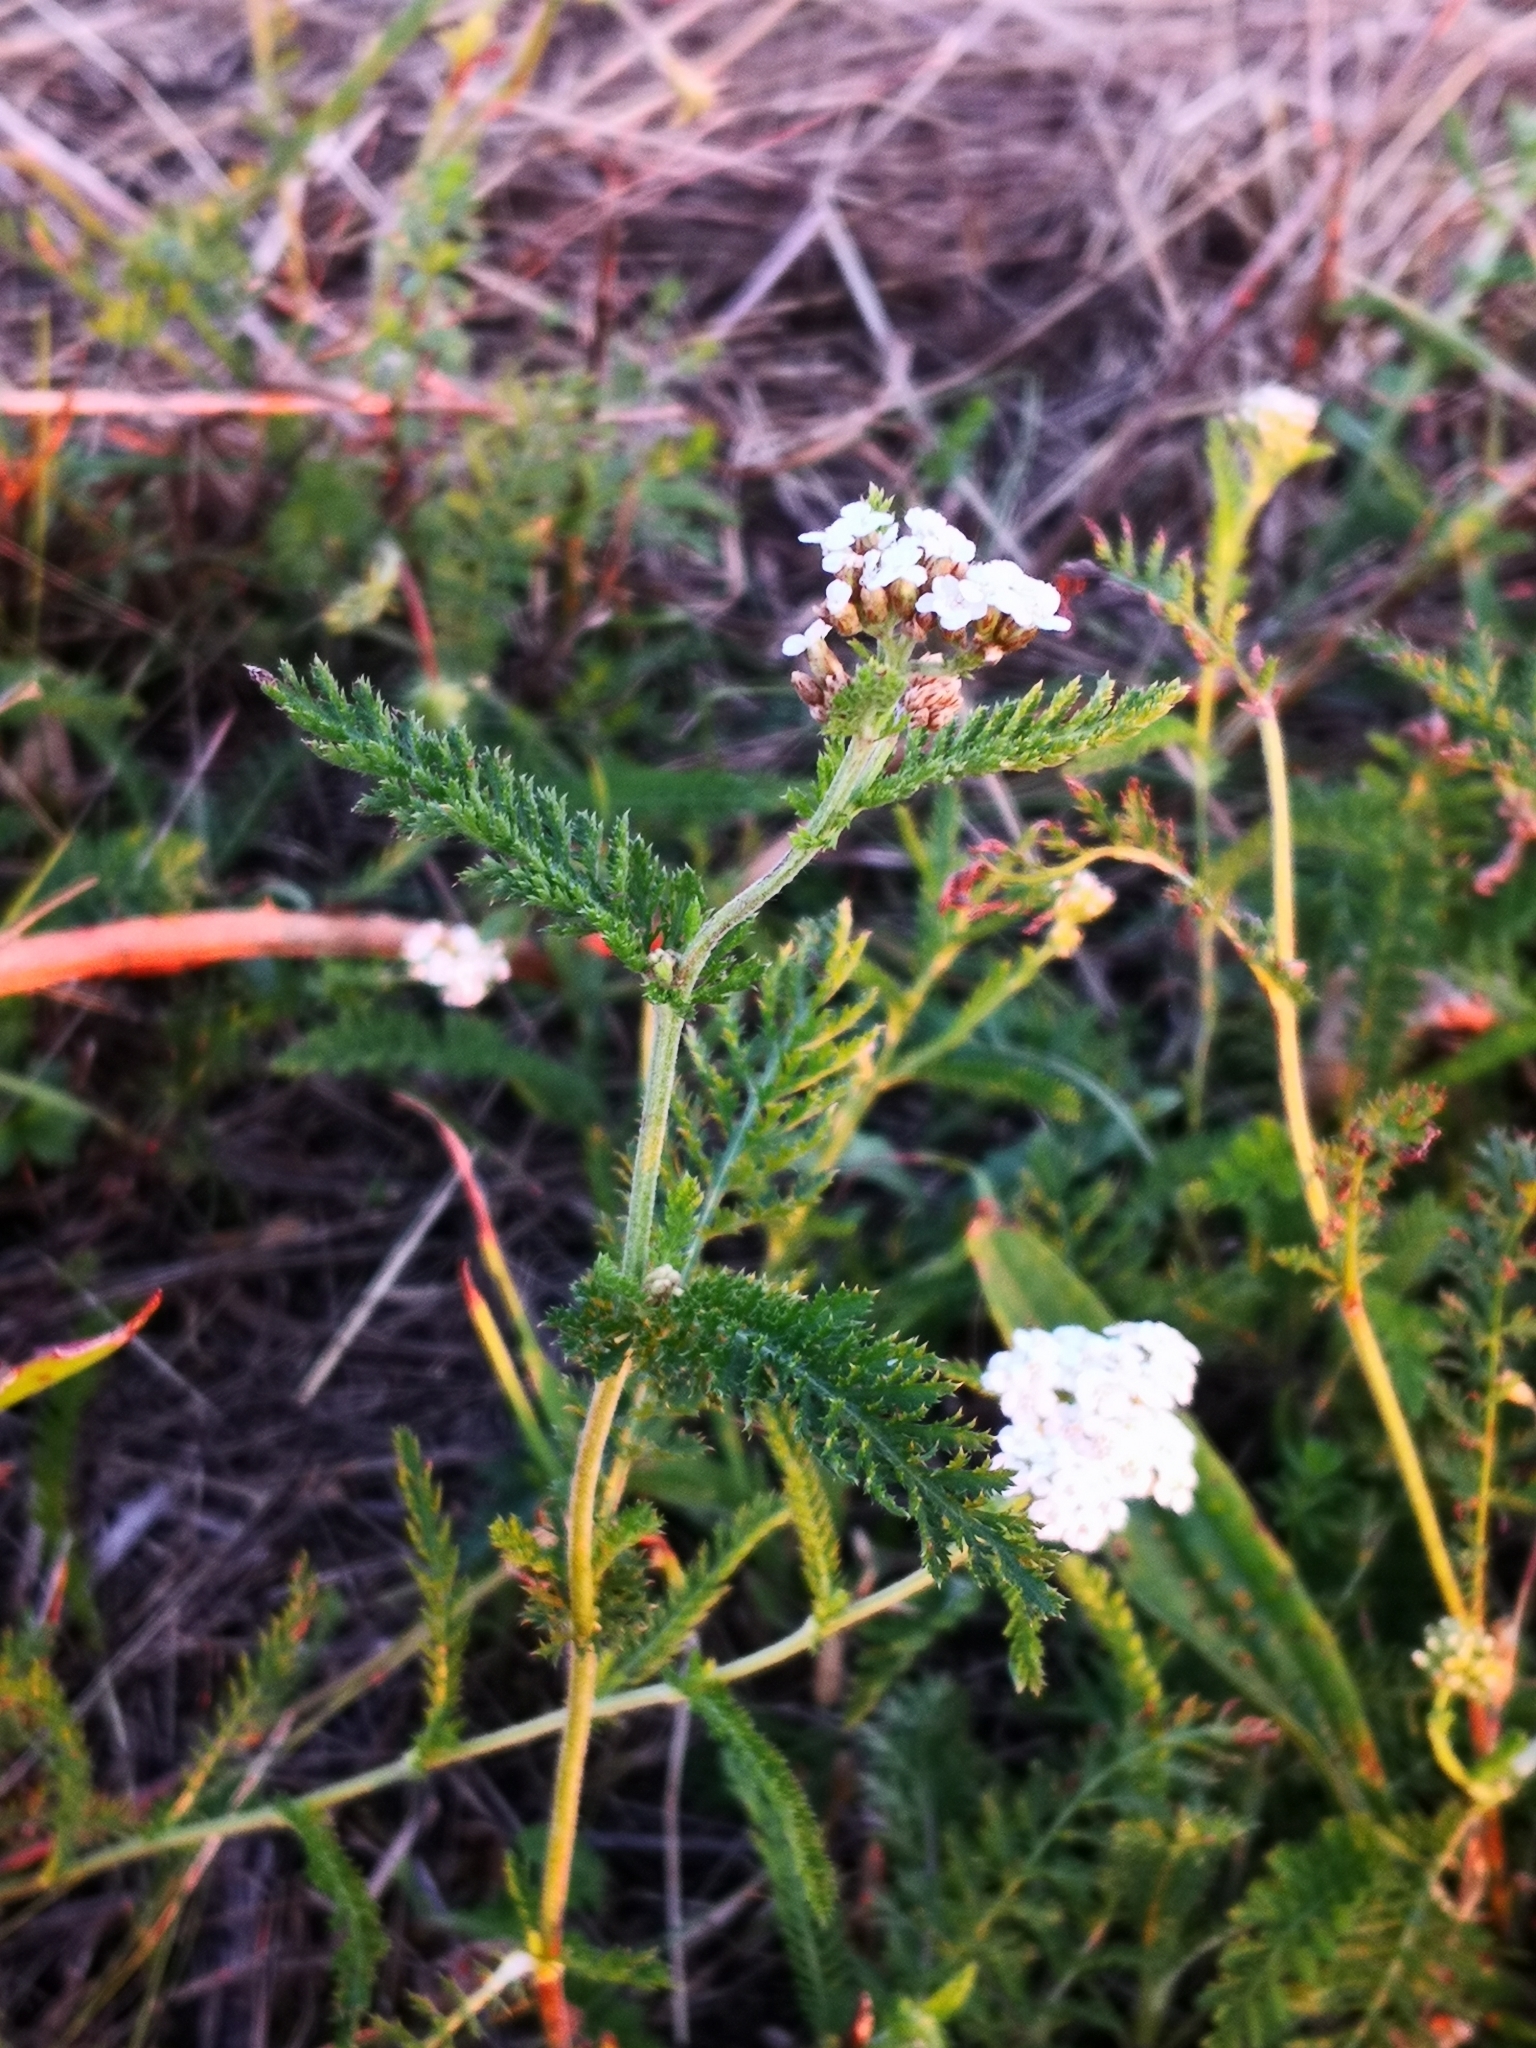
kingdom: Plantae
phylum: Tracheophyta
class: Magnoliopsida
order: Asterales
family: Asteraceae
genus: Achillea
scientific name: Achillea millefolium
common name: Yarrow
